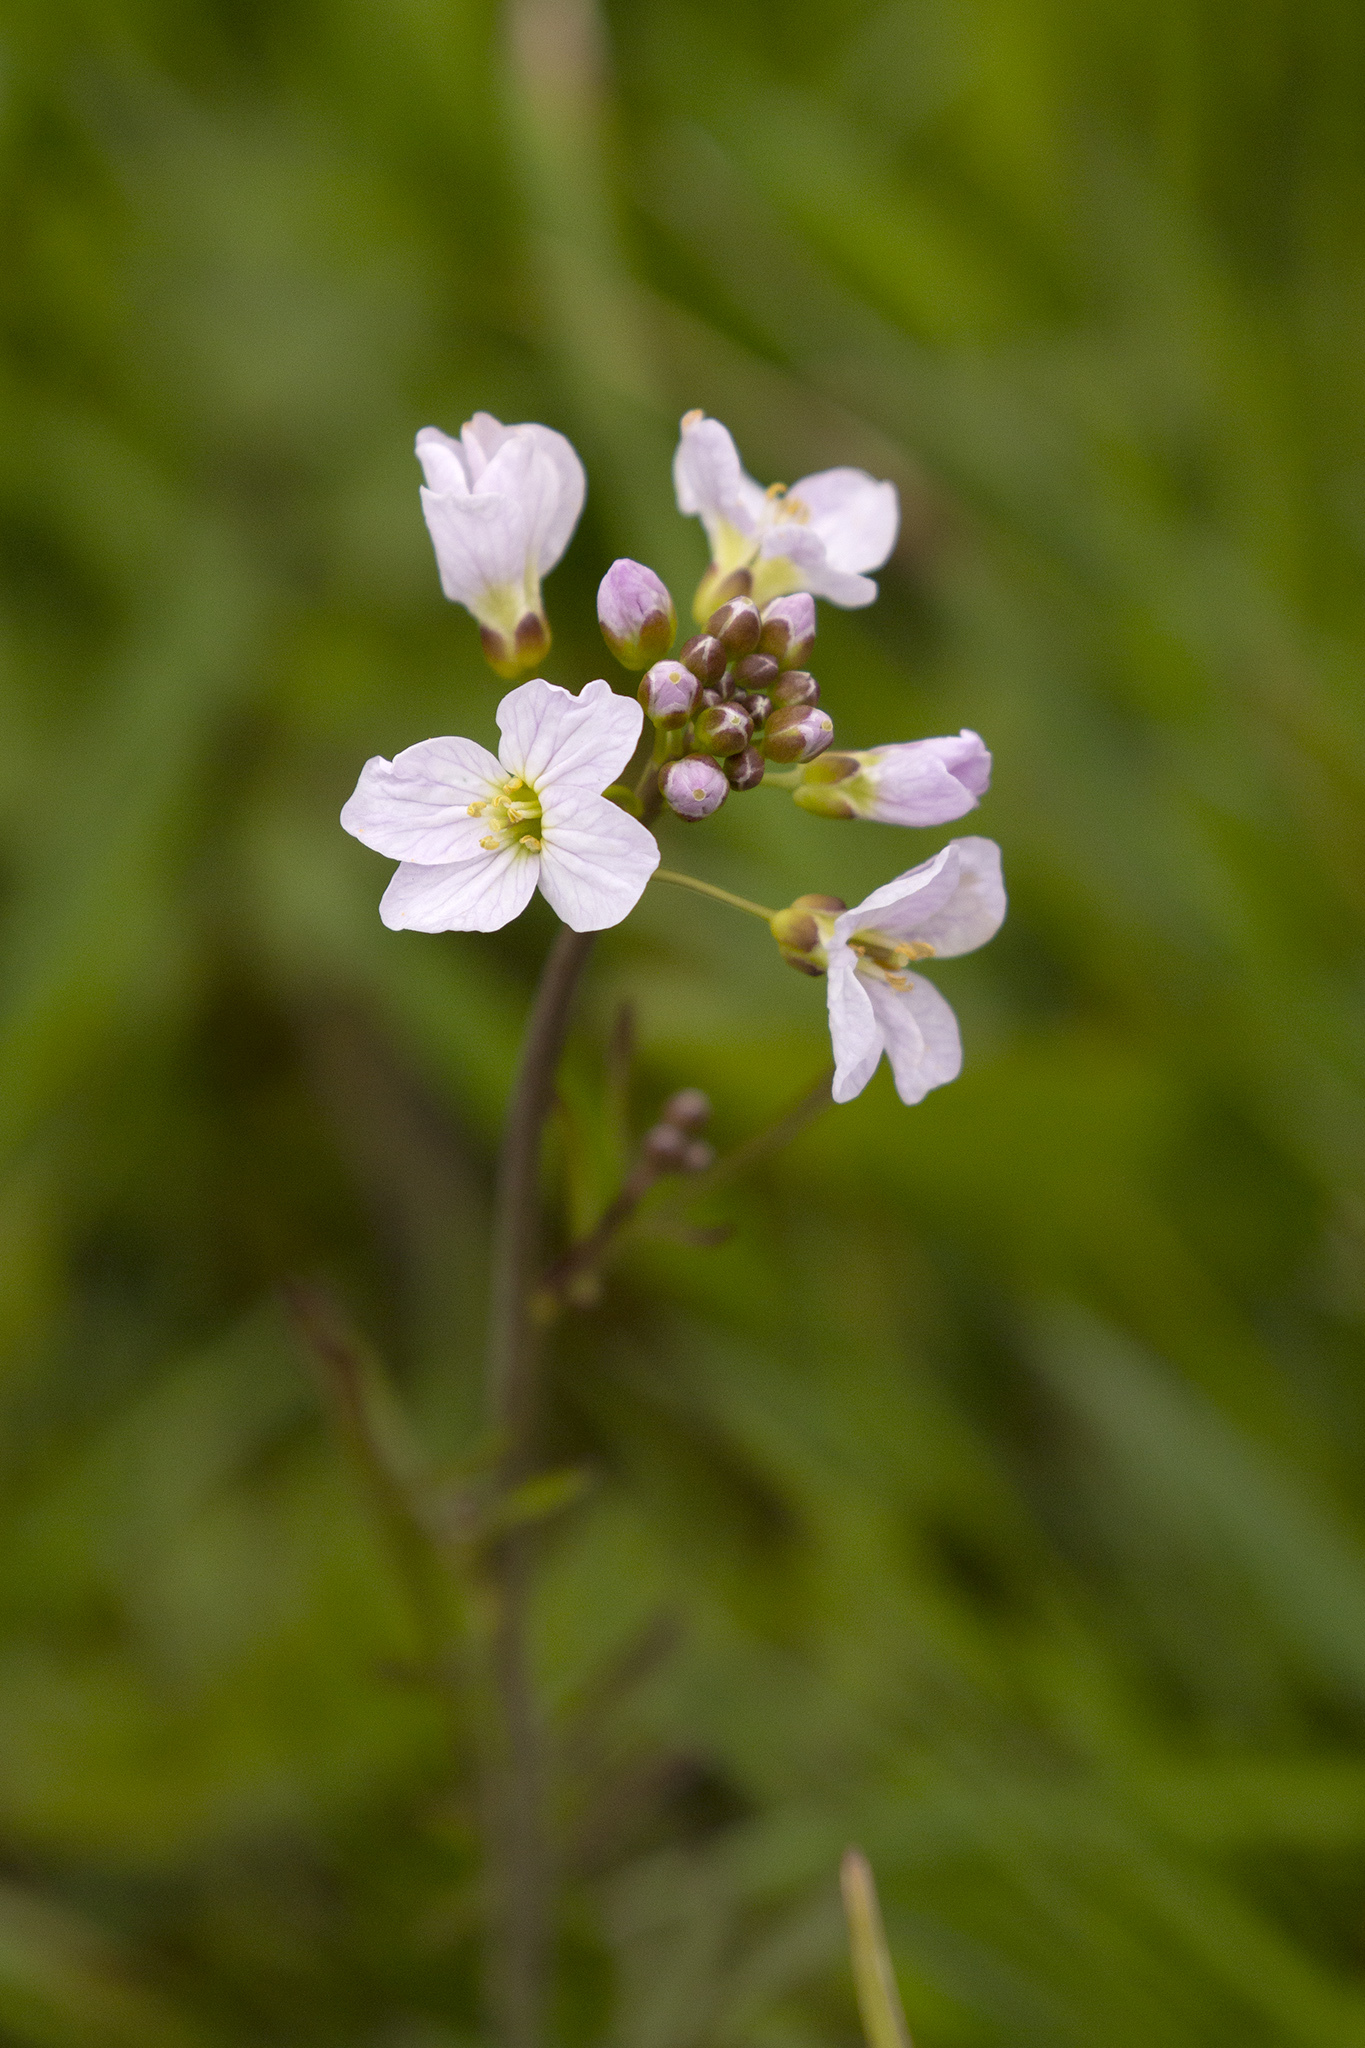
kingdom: Plantae
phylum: Tracheophyta
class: Magnoliopsida
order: Brassicales
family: Brassicaceae
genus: Cardamine
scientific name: Cardamine pratensis
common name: Cuckoo flower
